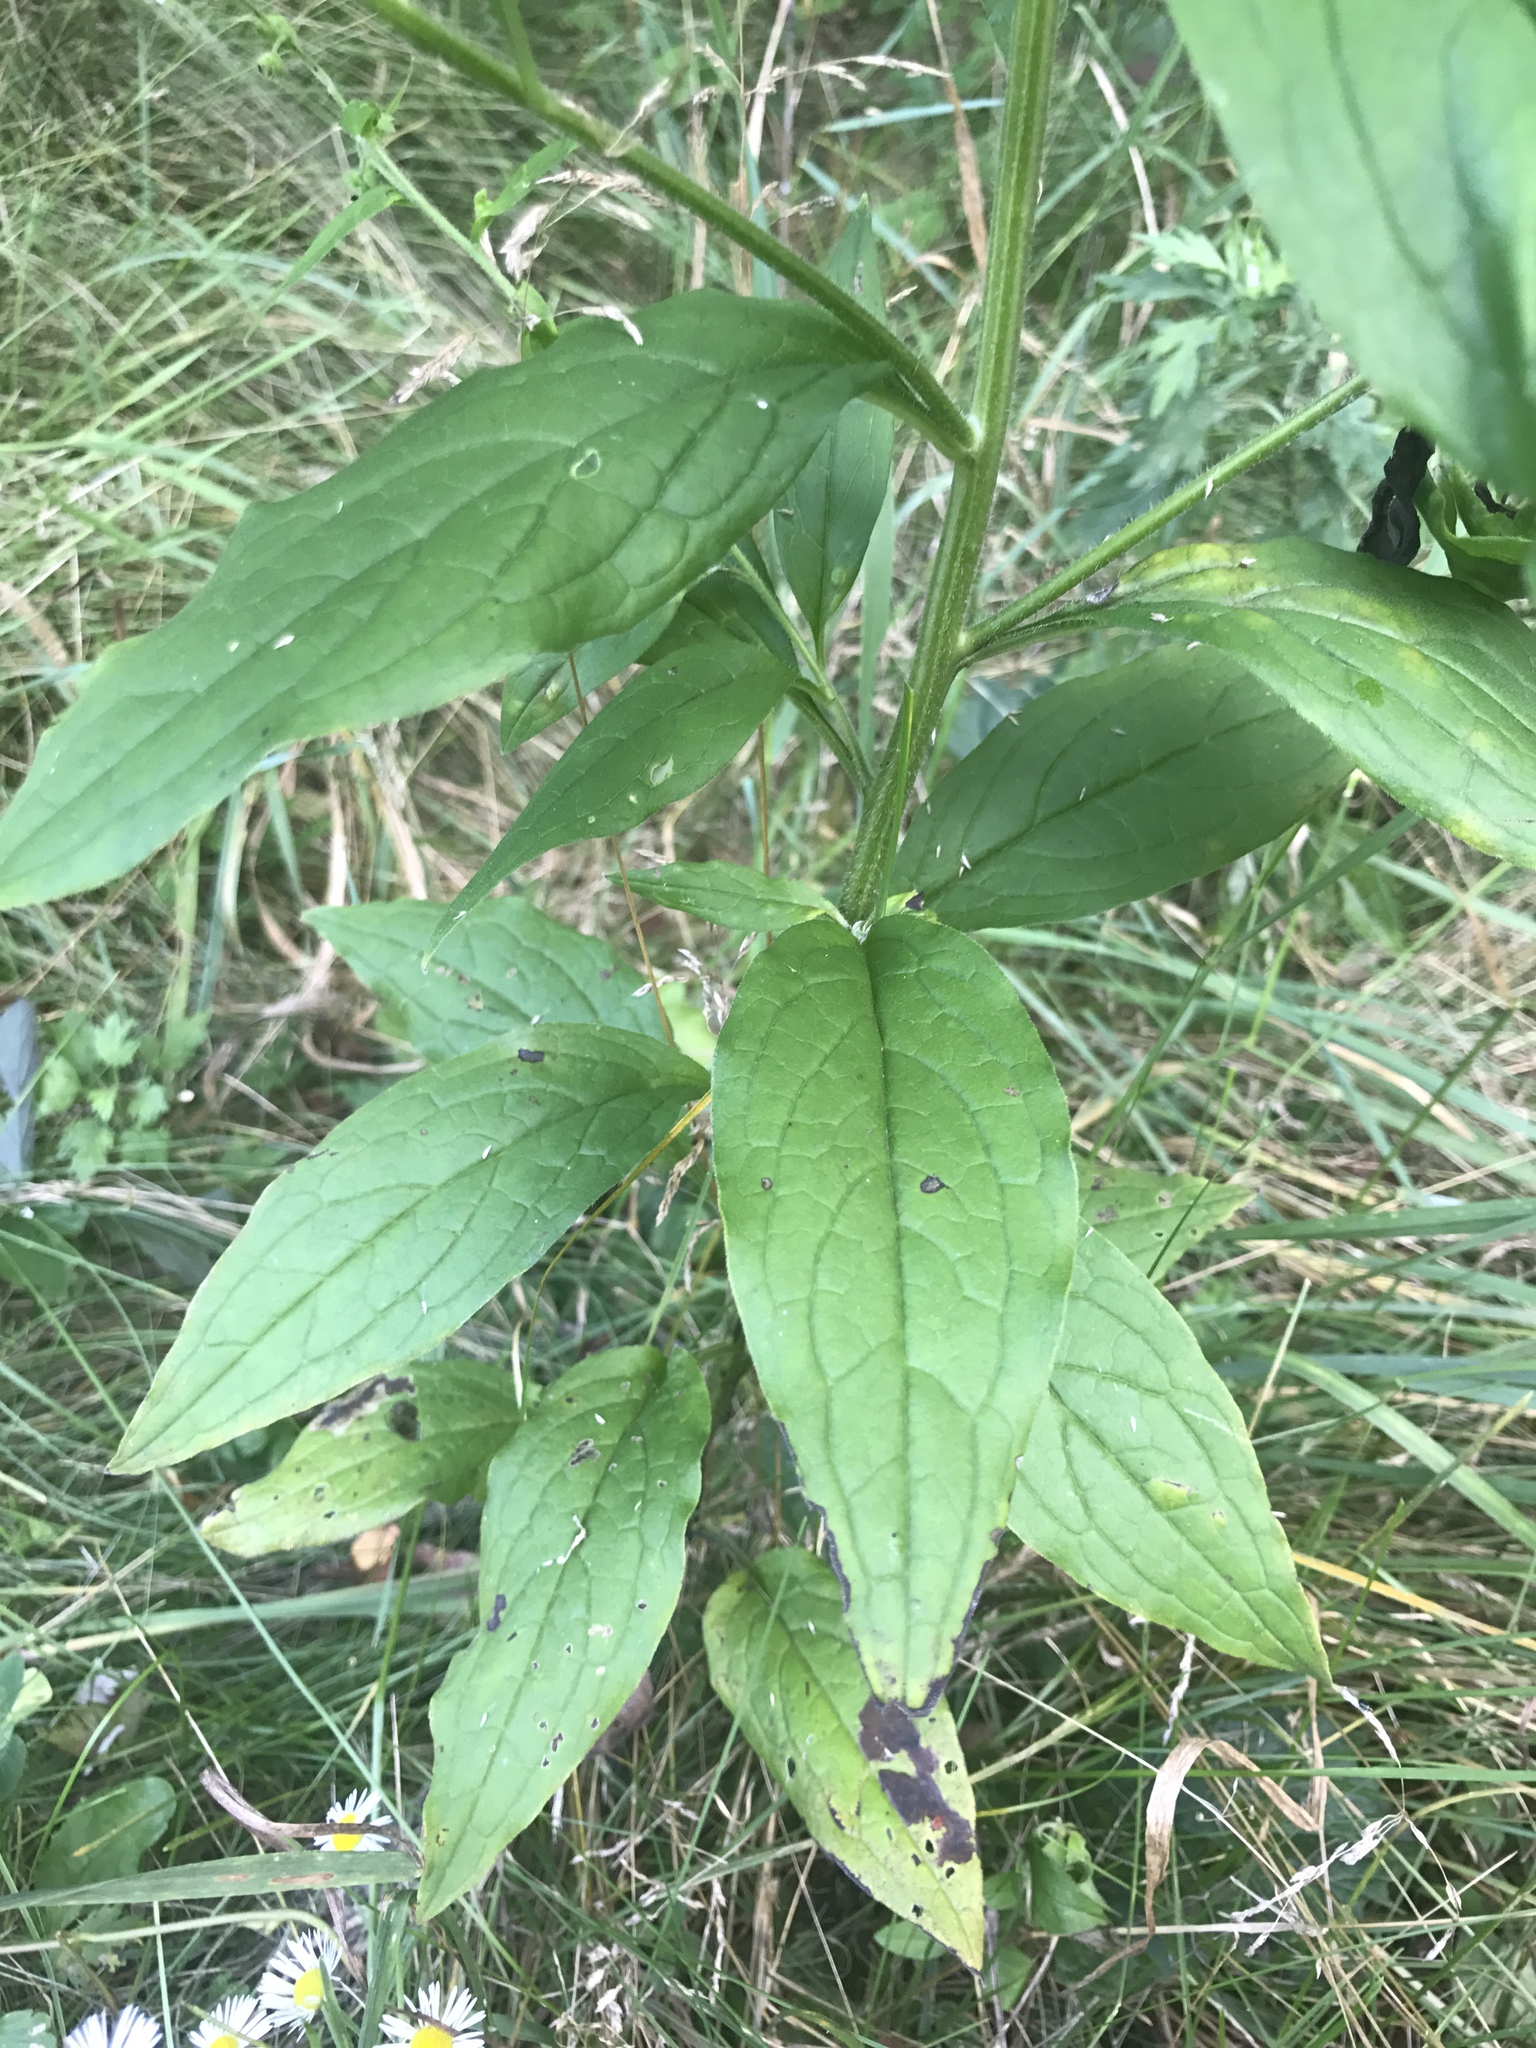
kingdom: Plantae
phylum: Tracheophyta
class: Magnoliopsida
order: Boraginales
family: Boraginaceae
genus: Hackelia
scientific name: Hackelia virginiana
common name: Beggar's-lice
